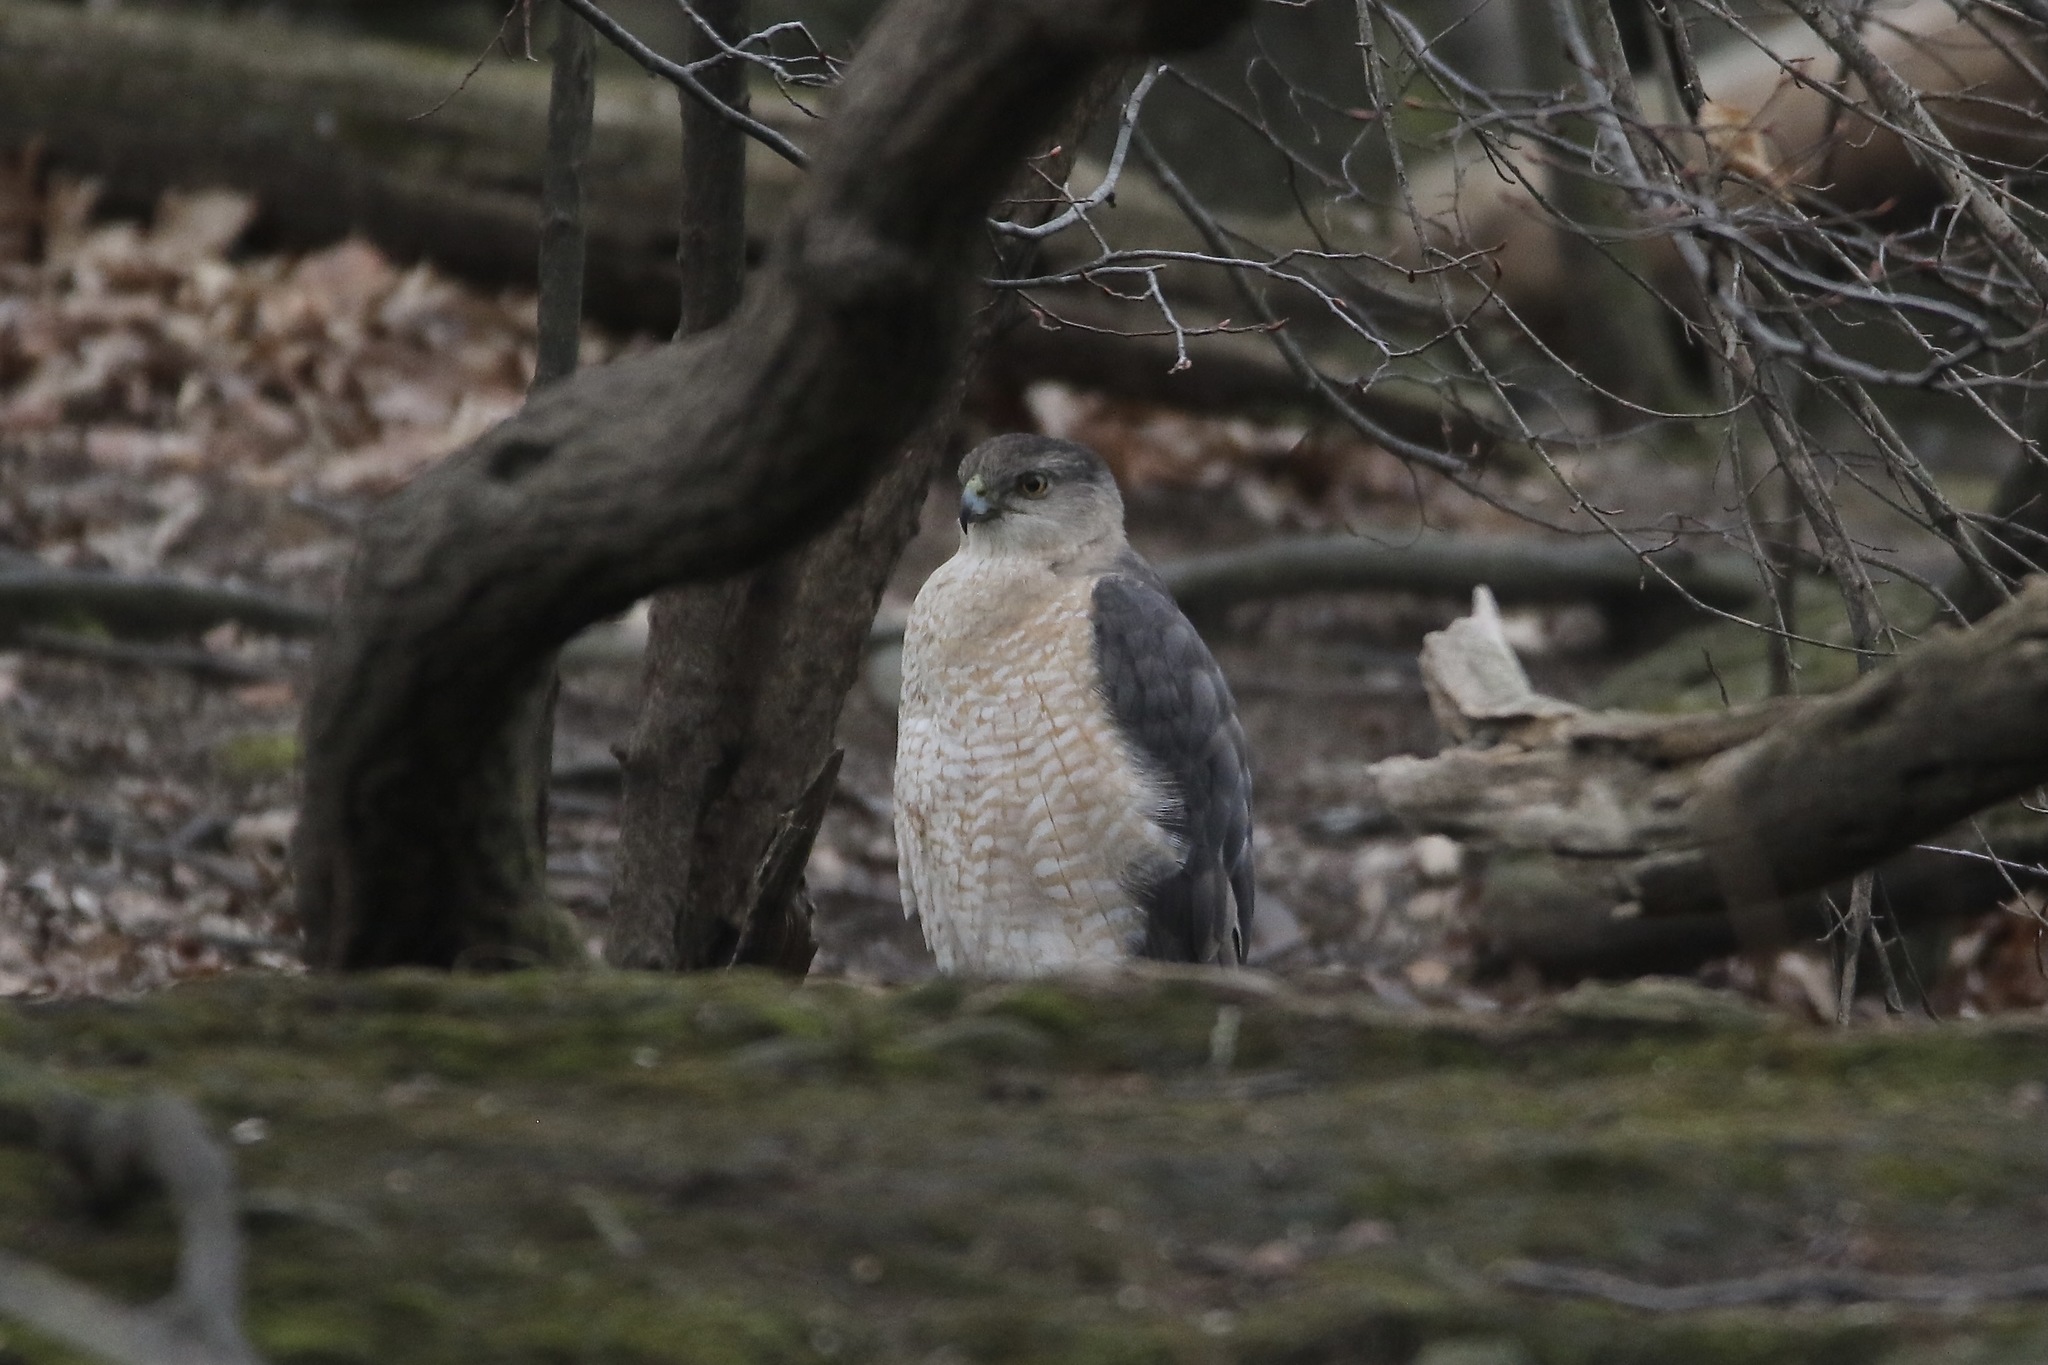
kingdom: Animalia
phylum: Chordata
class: Aves
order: Accipitriformes
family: Accipitridae
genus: Accipiter
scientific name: Accipiter cooperii
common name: Cooper's hawk
